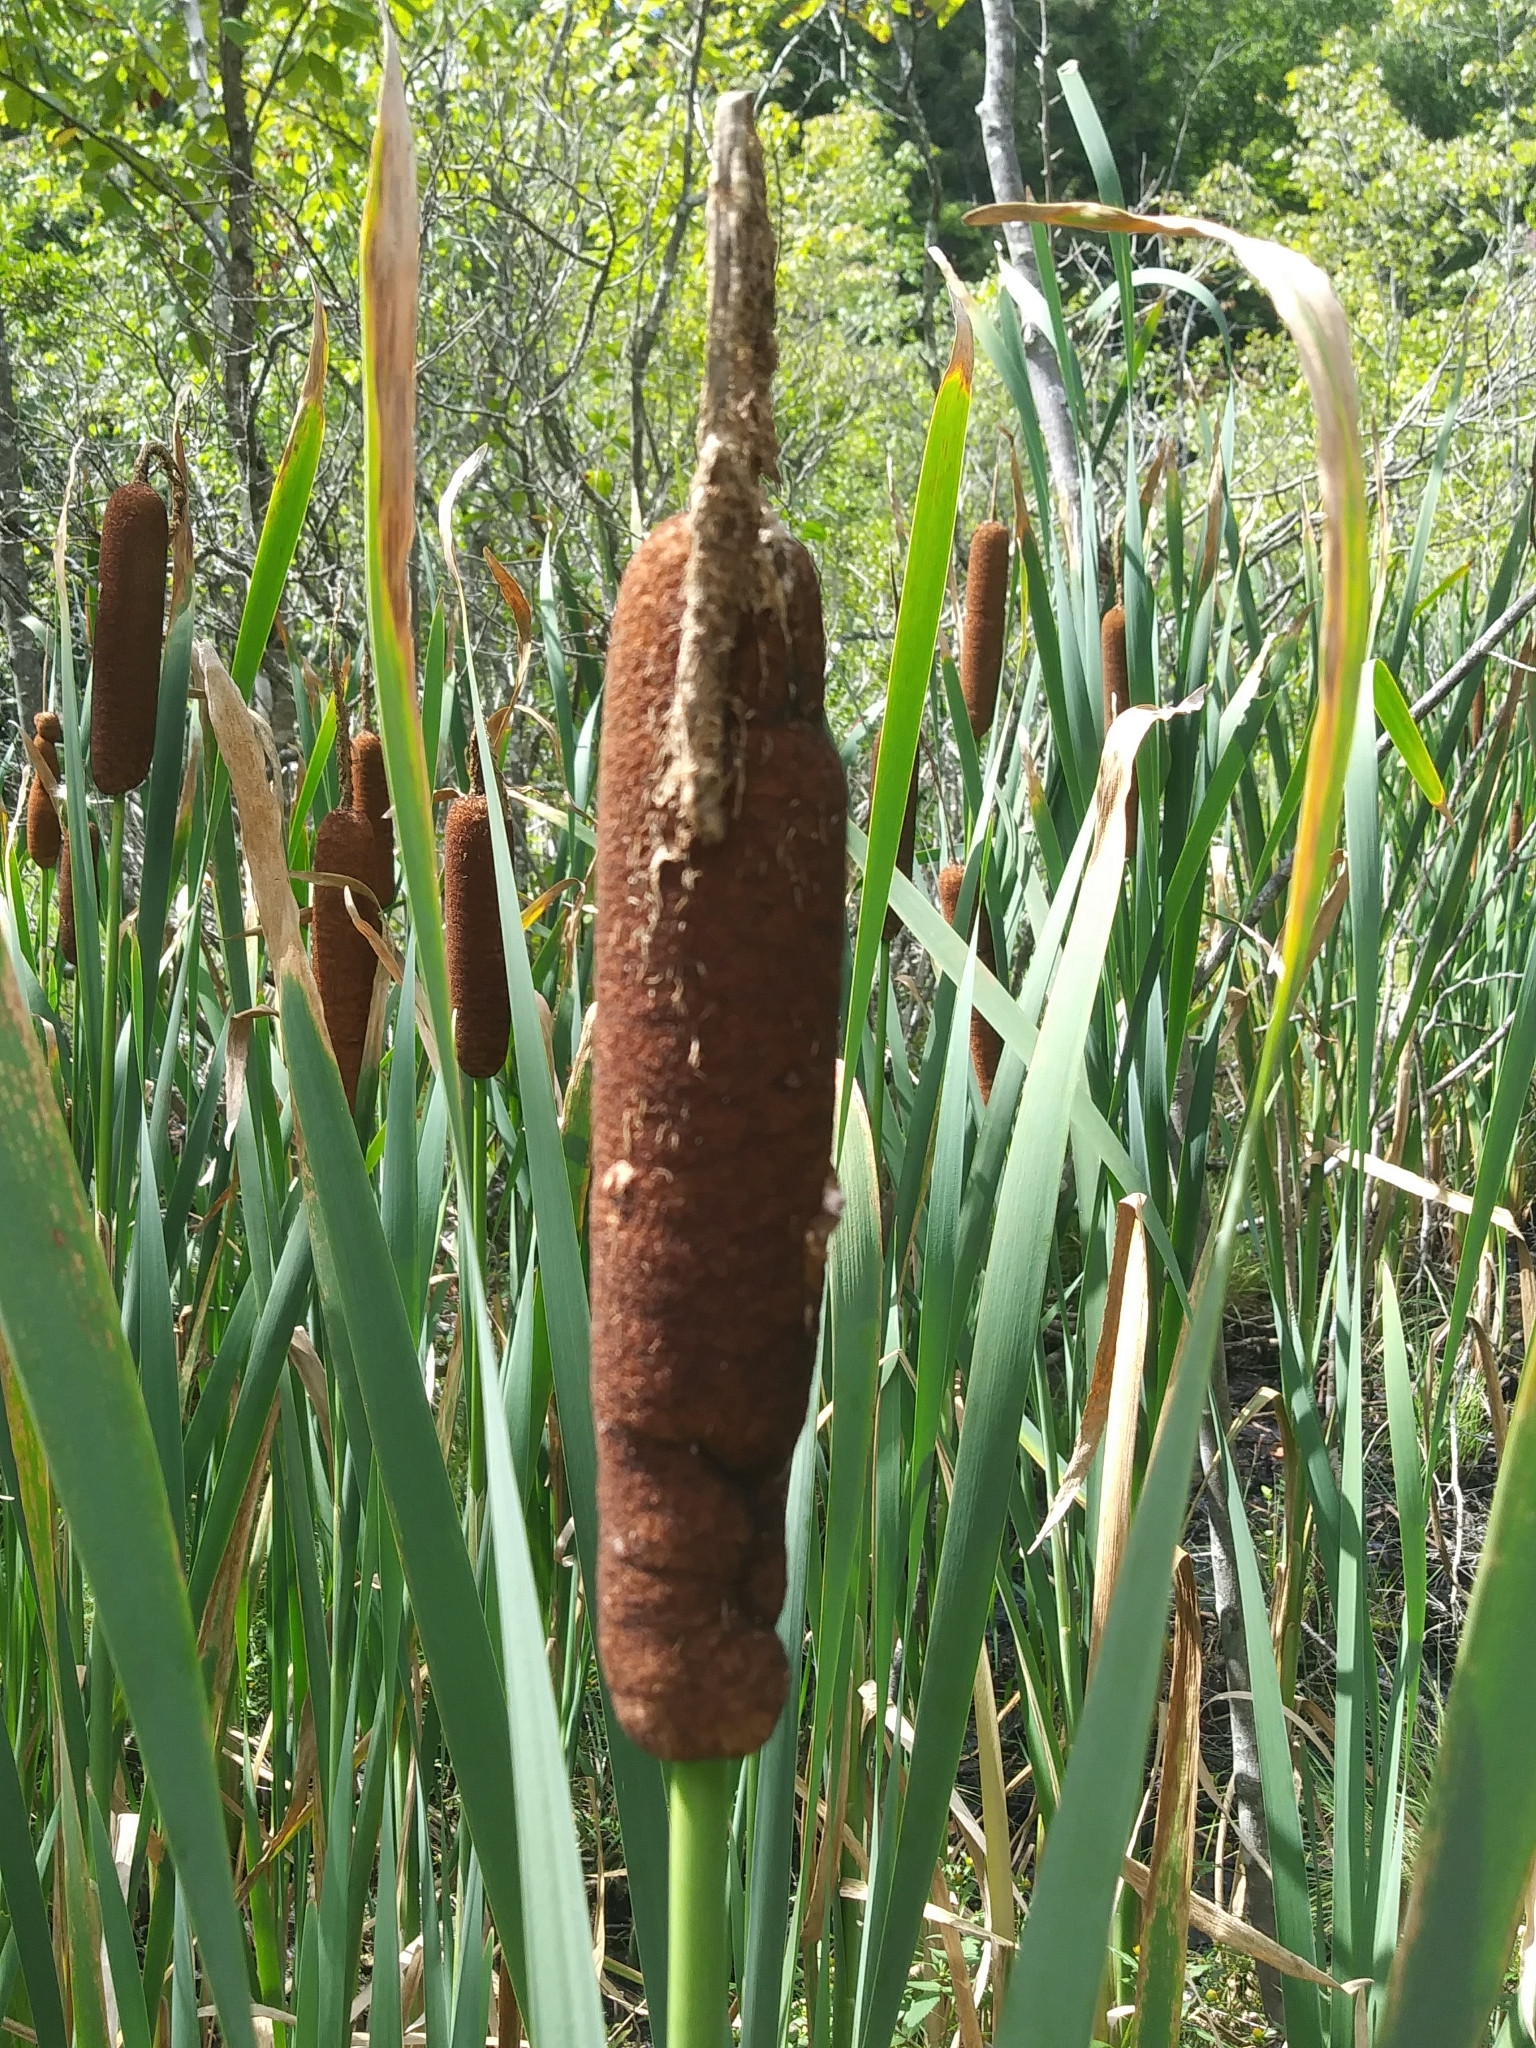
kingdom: Plantae
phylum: Tracheophyta
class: Liliopsida
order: Poales
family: Typhaceae
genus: Typha
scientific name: Typha latifolia
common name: Broadleaf cattail
